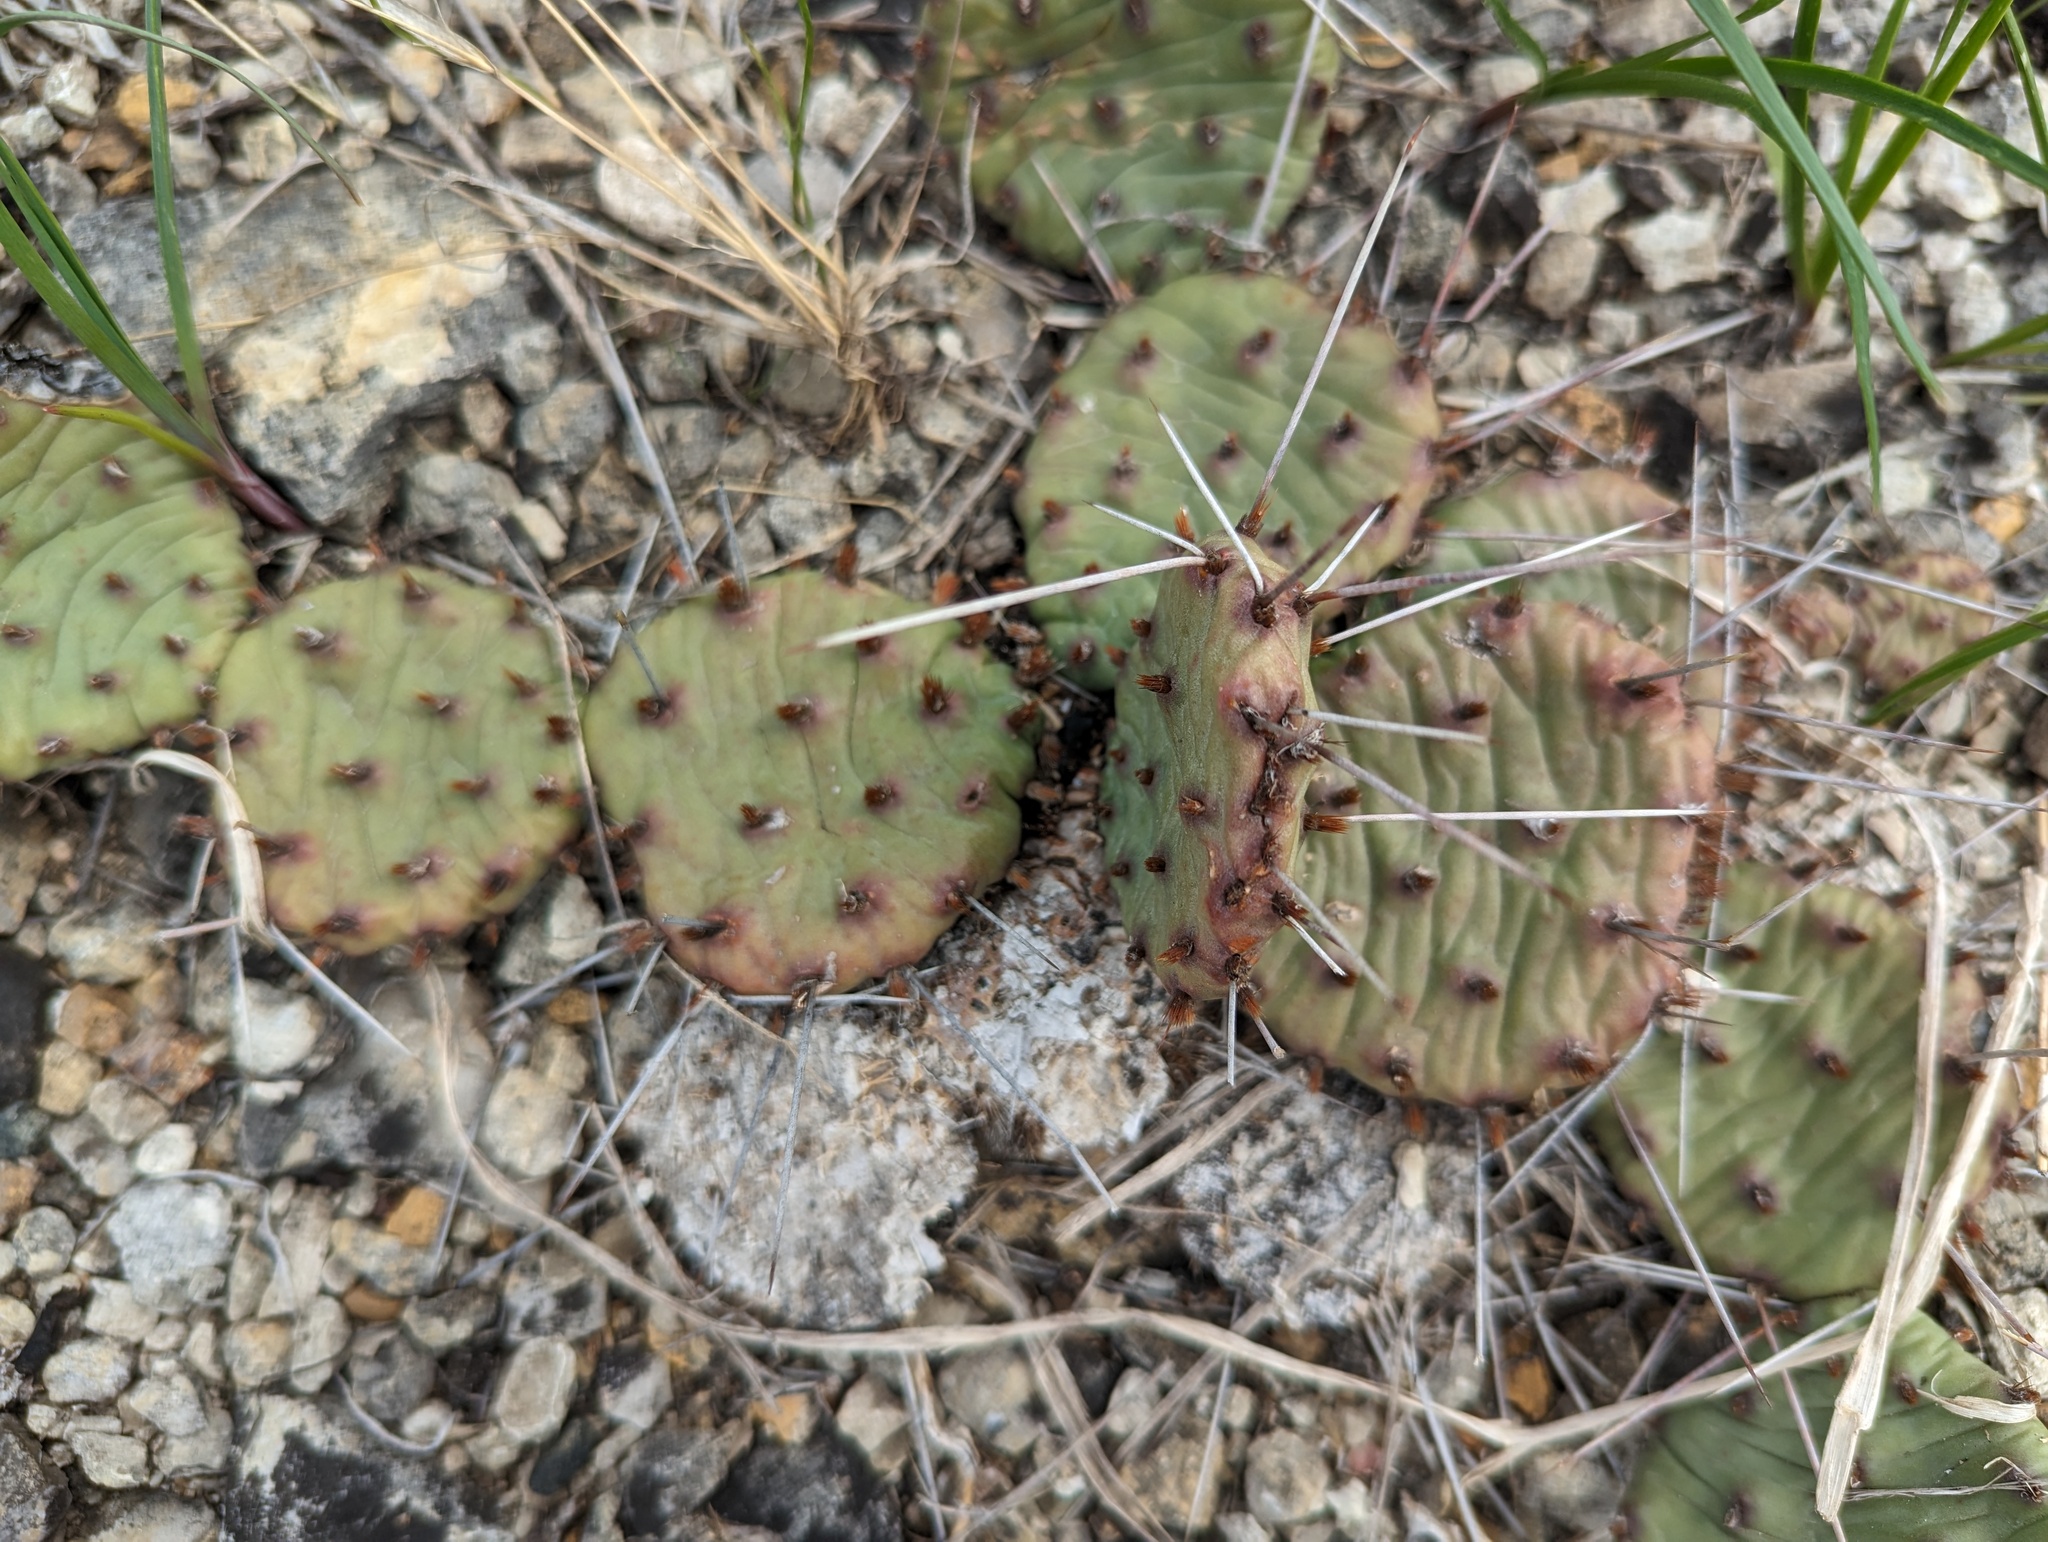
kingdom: Plantae
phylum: Tracheophyta
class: Magnoliopsida
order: Caryophyllales
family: Cactaceae
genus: Opuntia
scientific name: Opuntia humifusa
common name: Eastern prickly-pear
